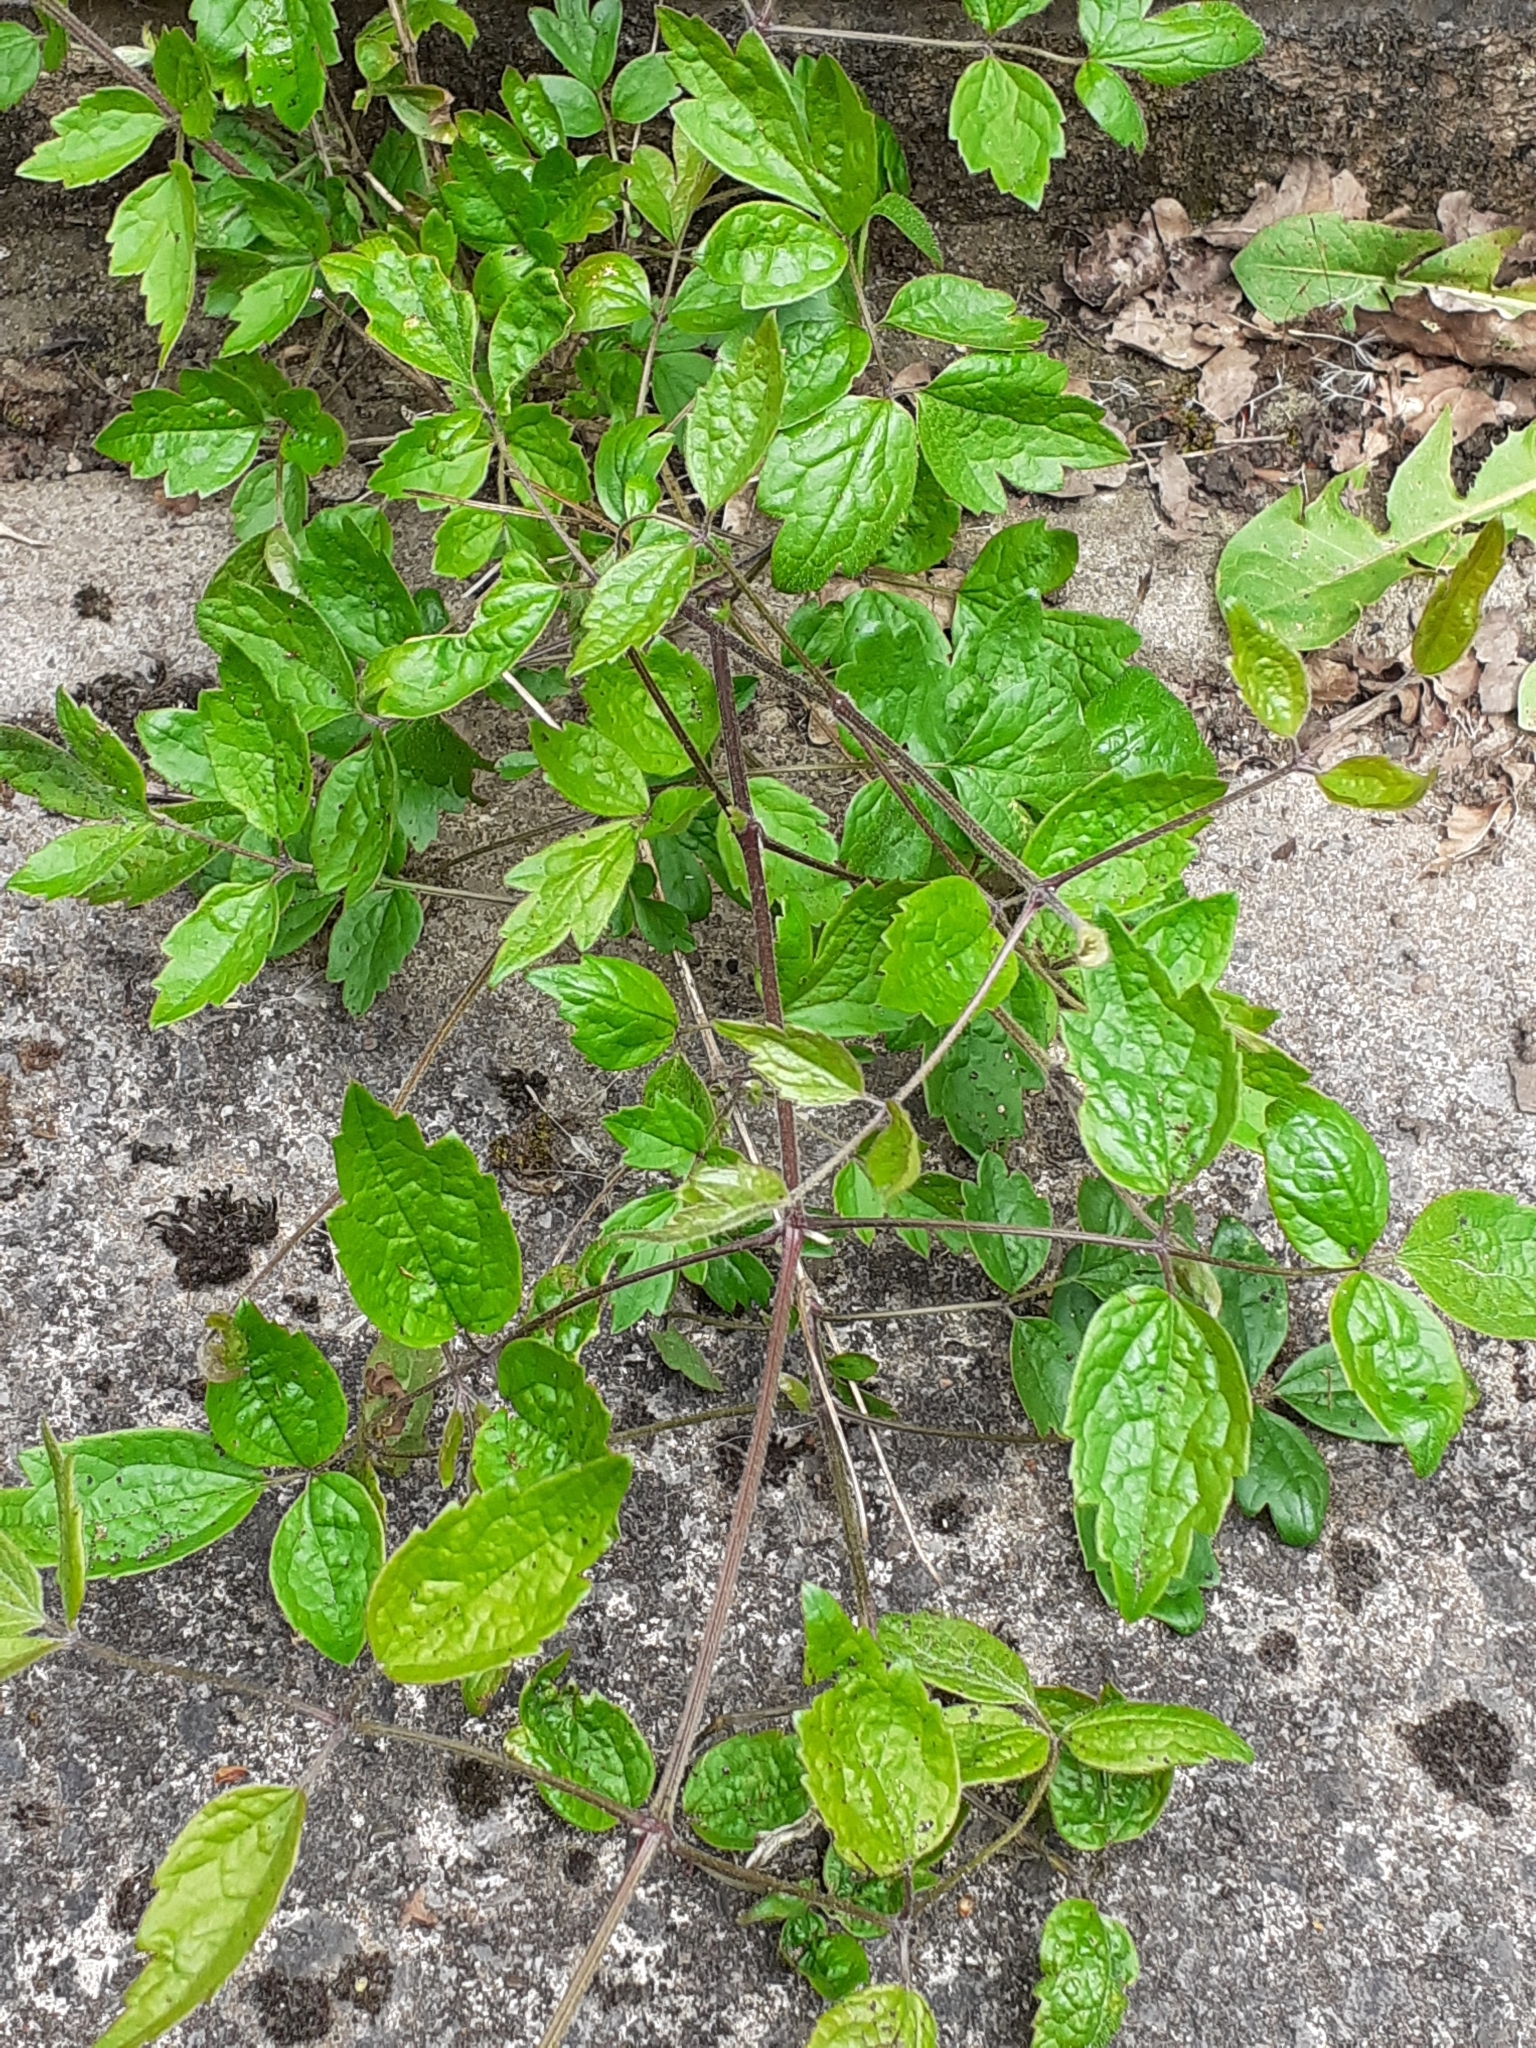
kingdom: Plantae
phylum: Tracheophyta
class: Magnoliopsida
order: Ranunculales
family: Ranunculaceae
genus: Clematis
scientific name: Clematis vitalba
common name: Evergreen clematis
